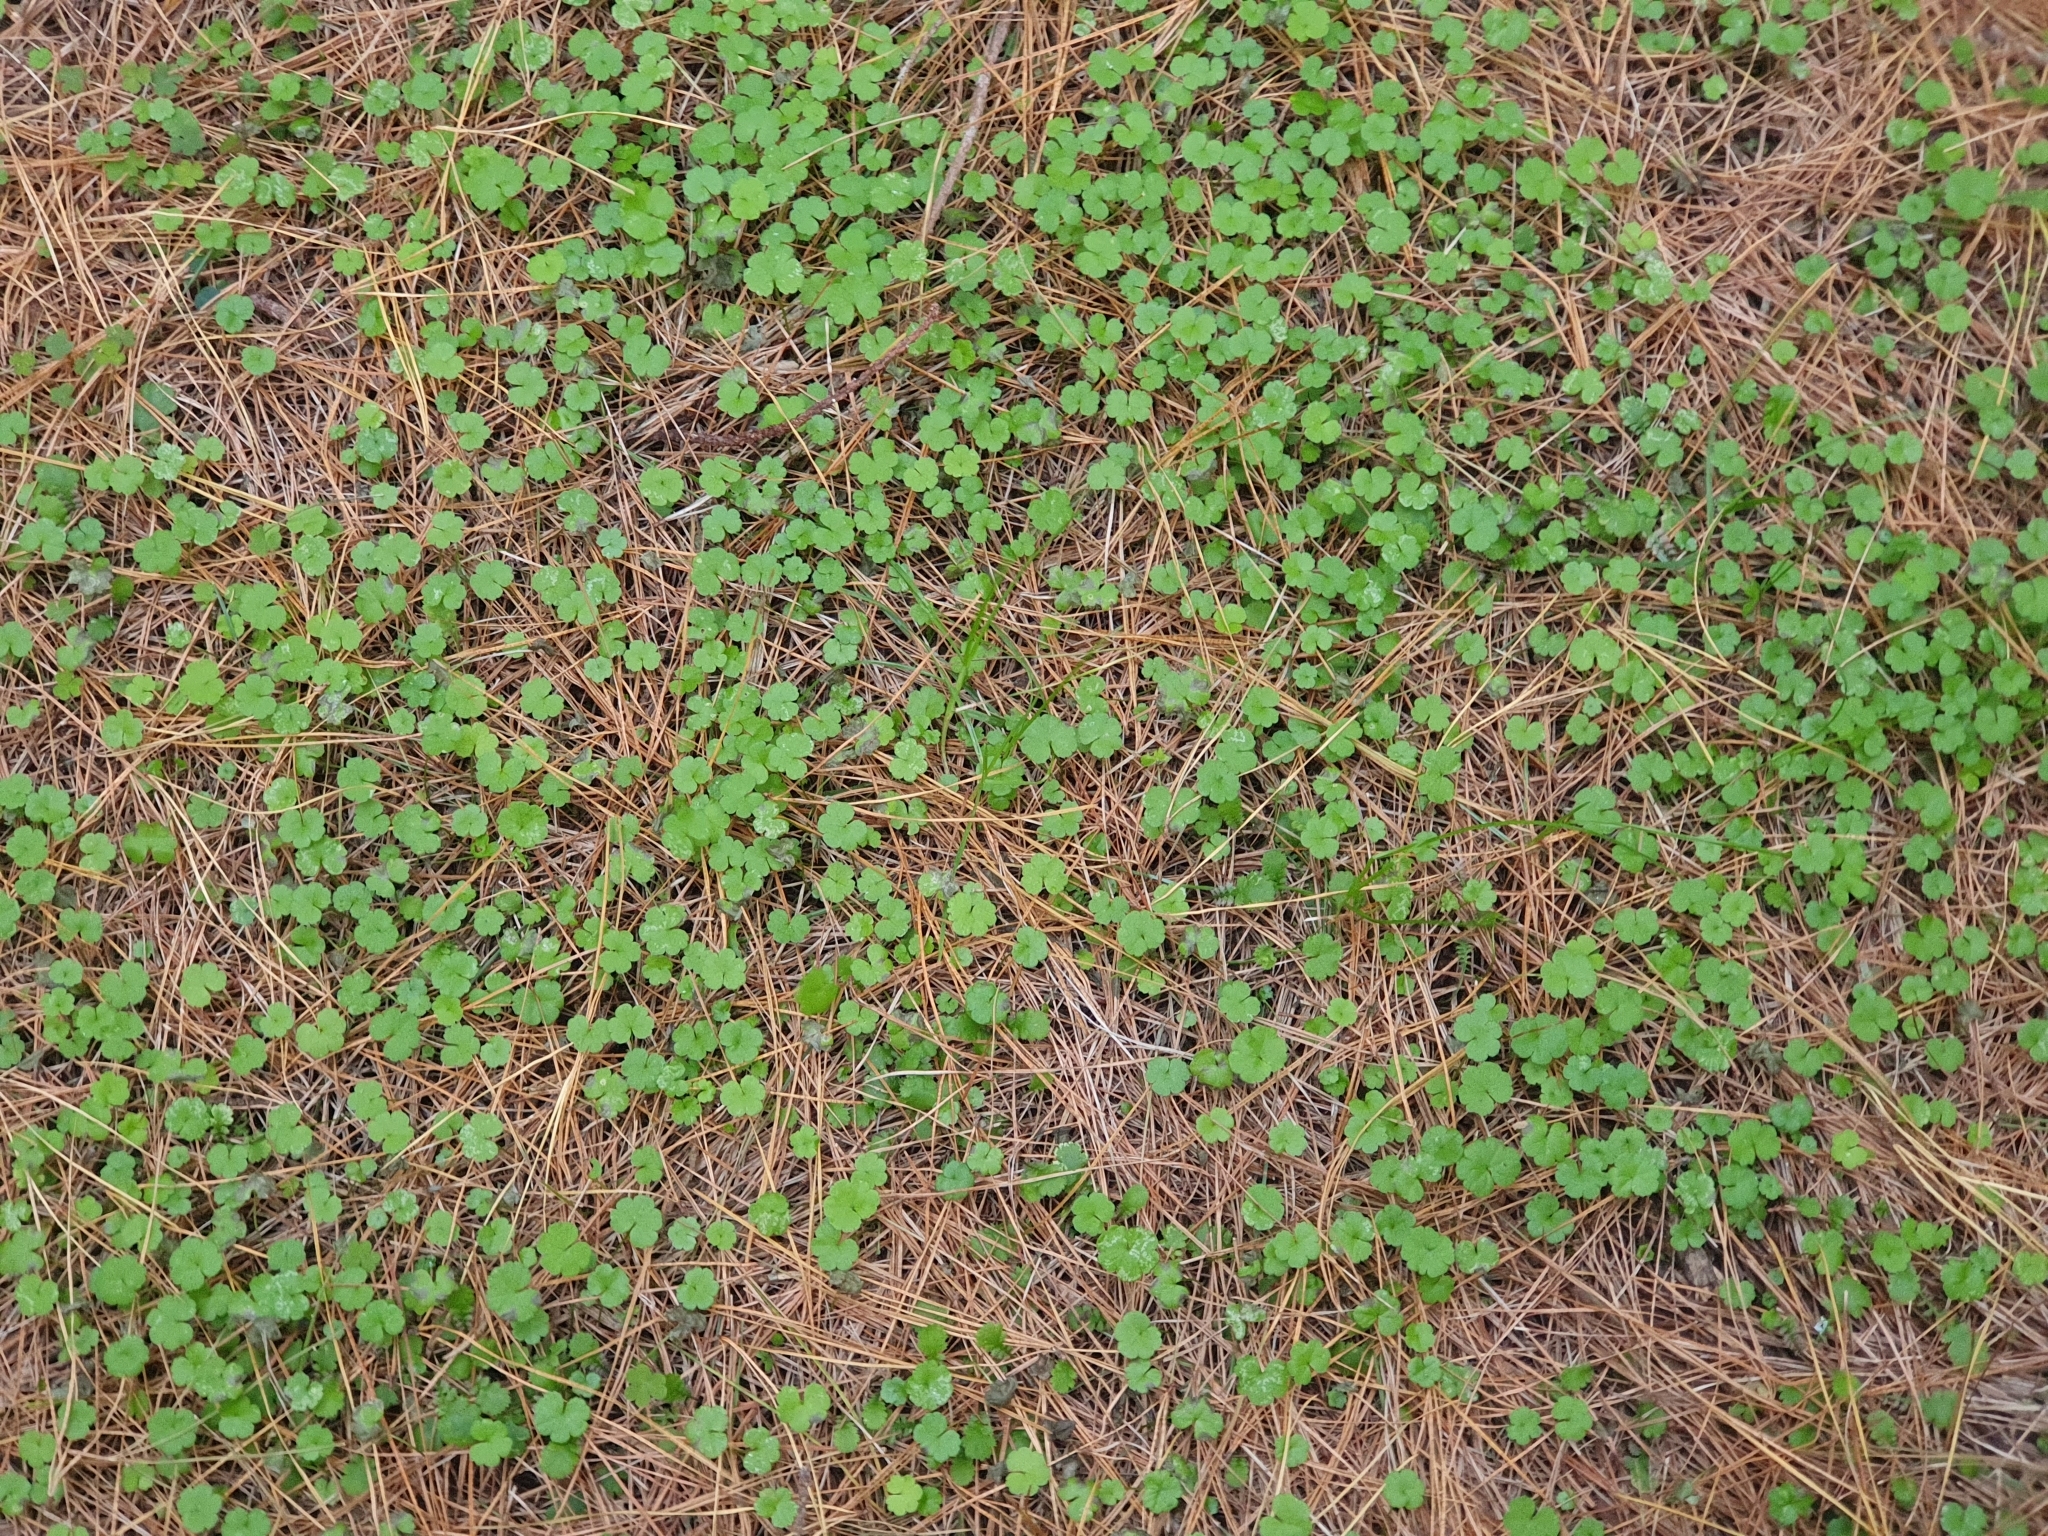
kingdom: Plantae
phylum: Tracheophyta
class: Magnoliopsida
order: Apiales
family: Araliaceae
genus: Hydrocotyle
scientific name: Hydrocotyle heteromeria
